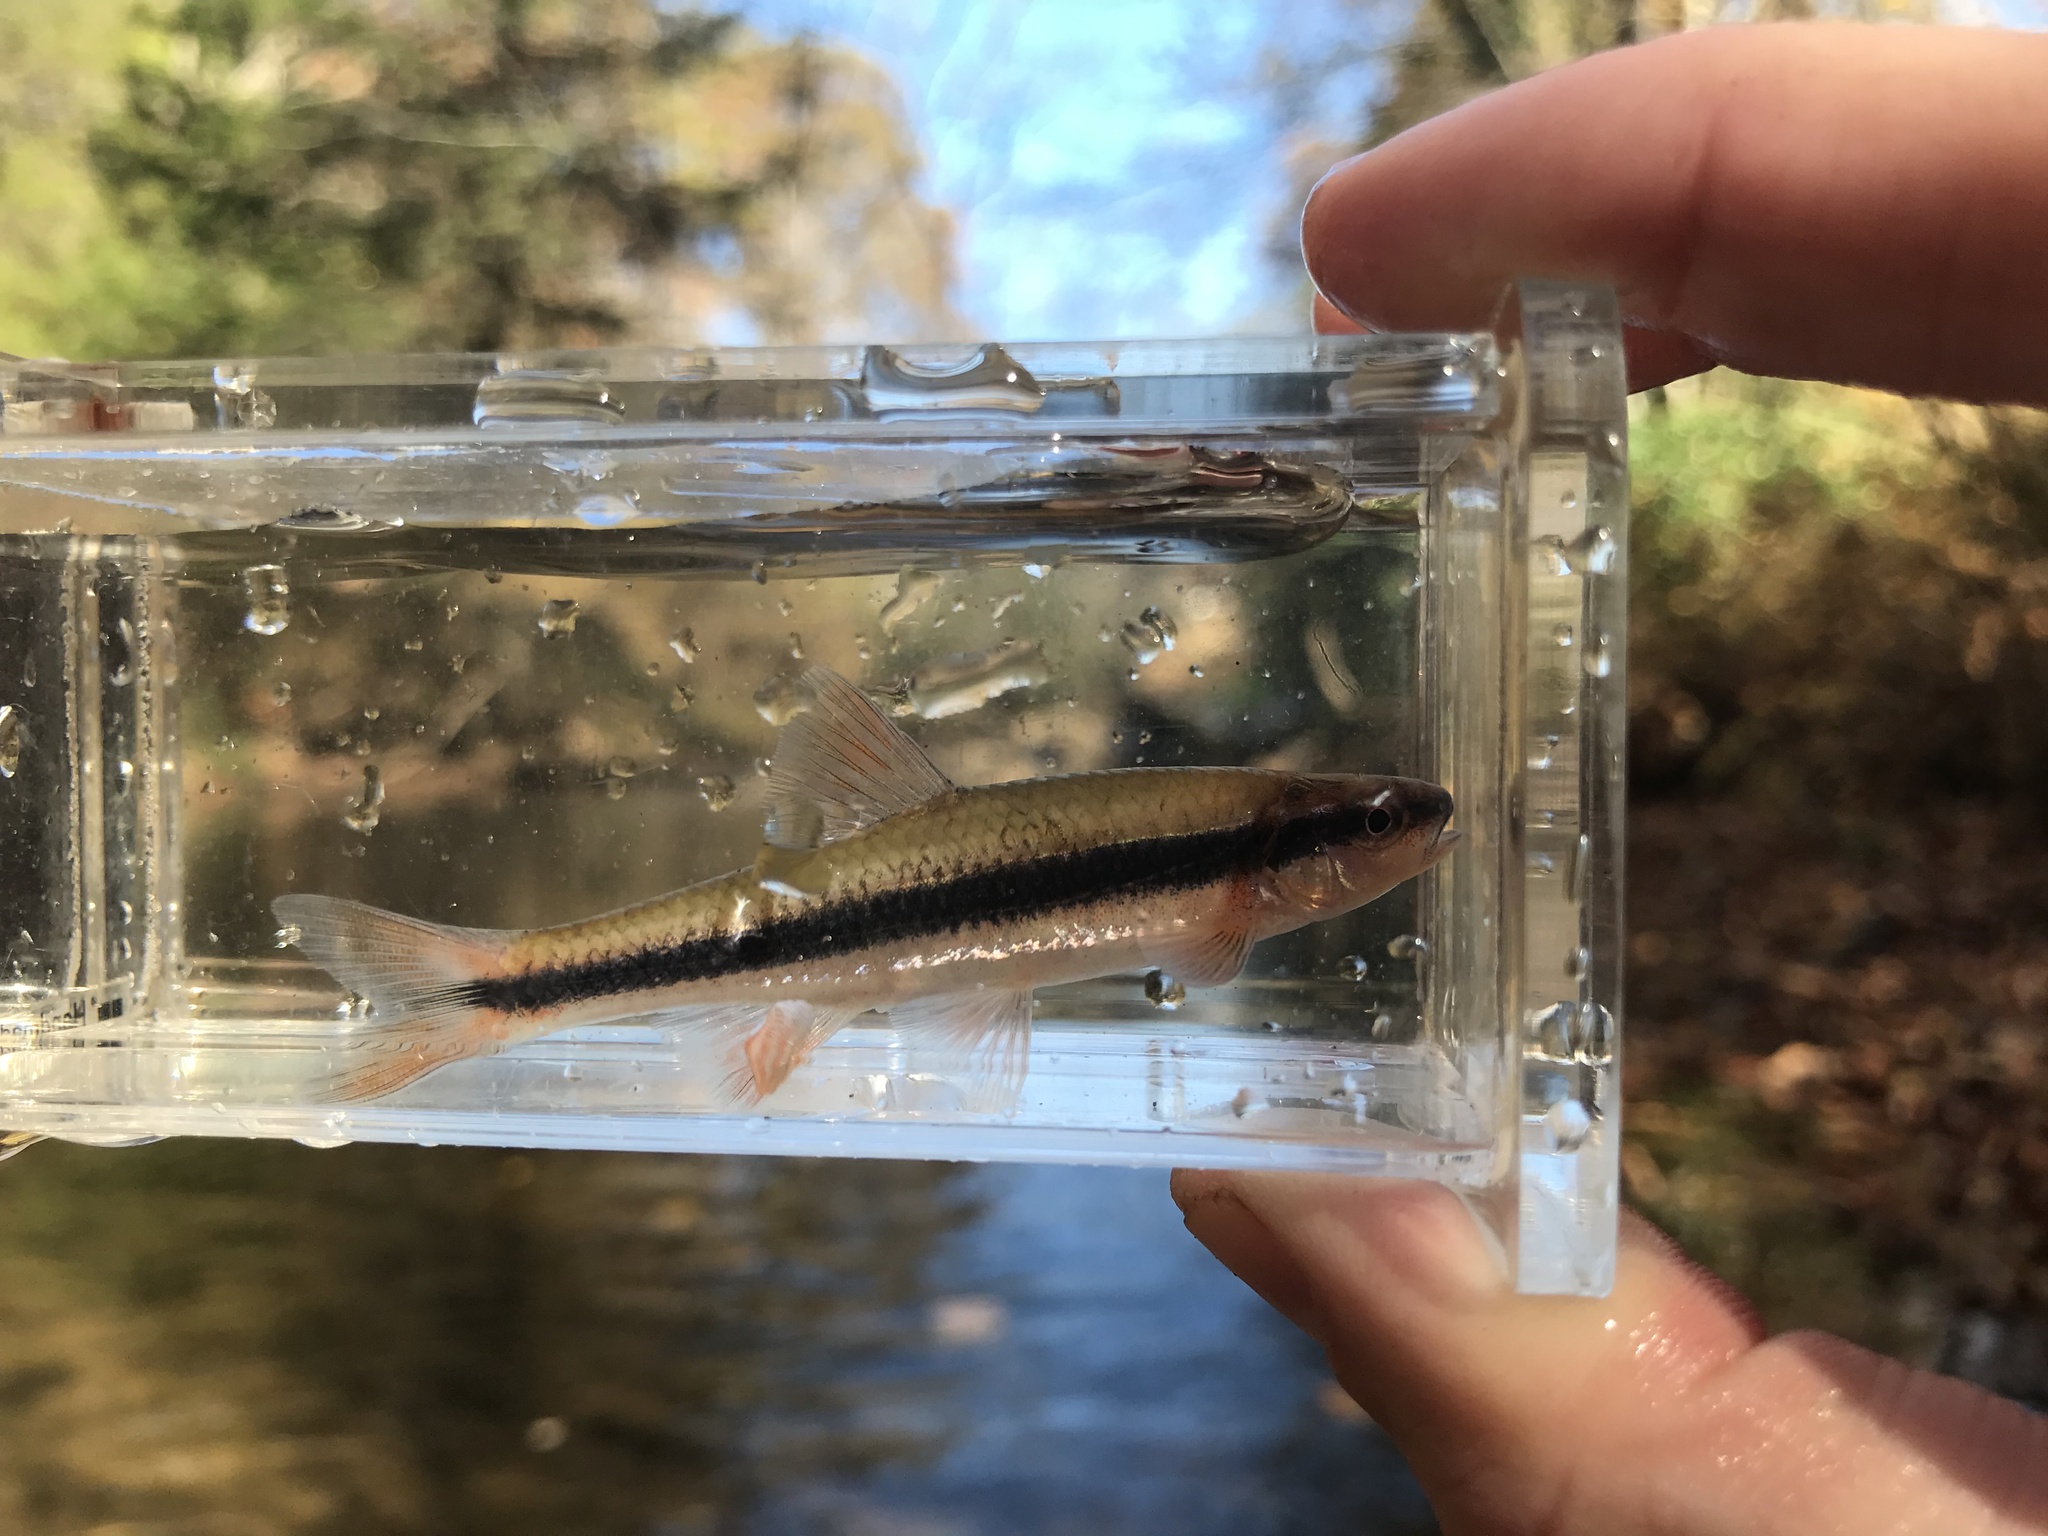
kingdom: Animalia
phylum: Chordata
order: Cypriniformes
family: Cyprinidae
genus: Notropis
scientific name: Notropis lutipinnis
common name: Yellowfin shiner
